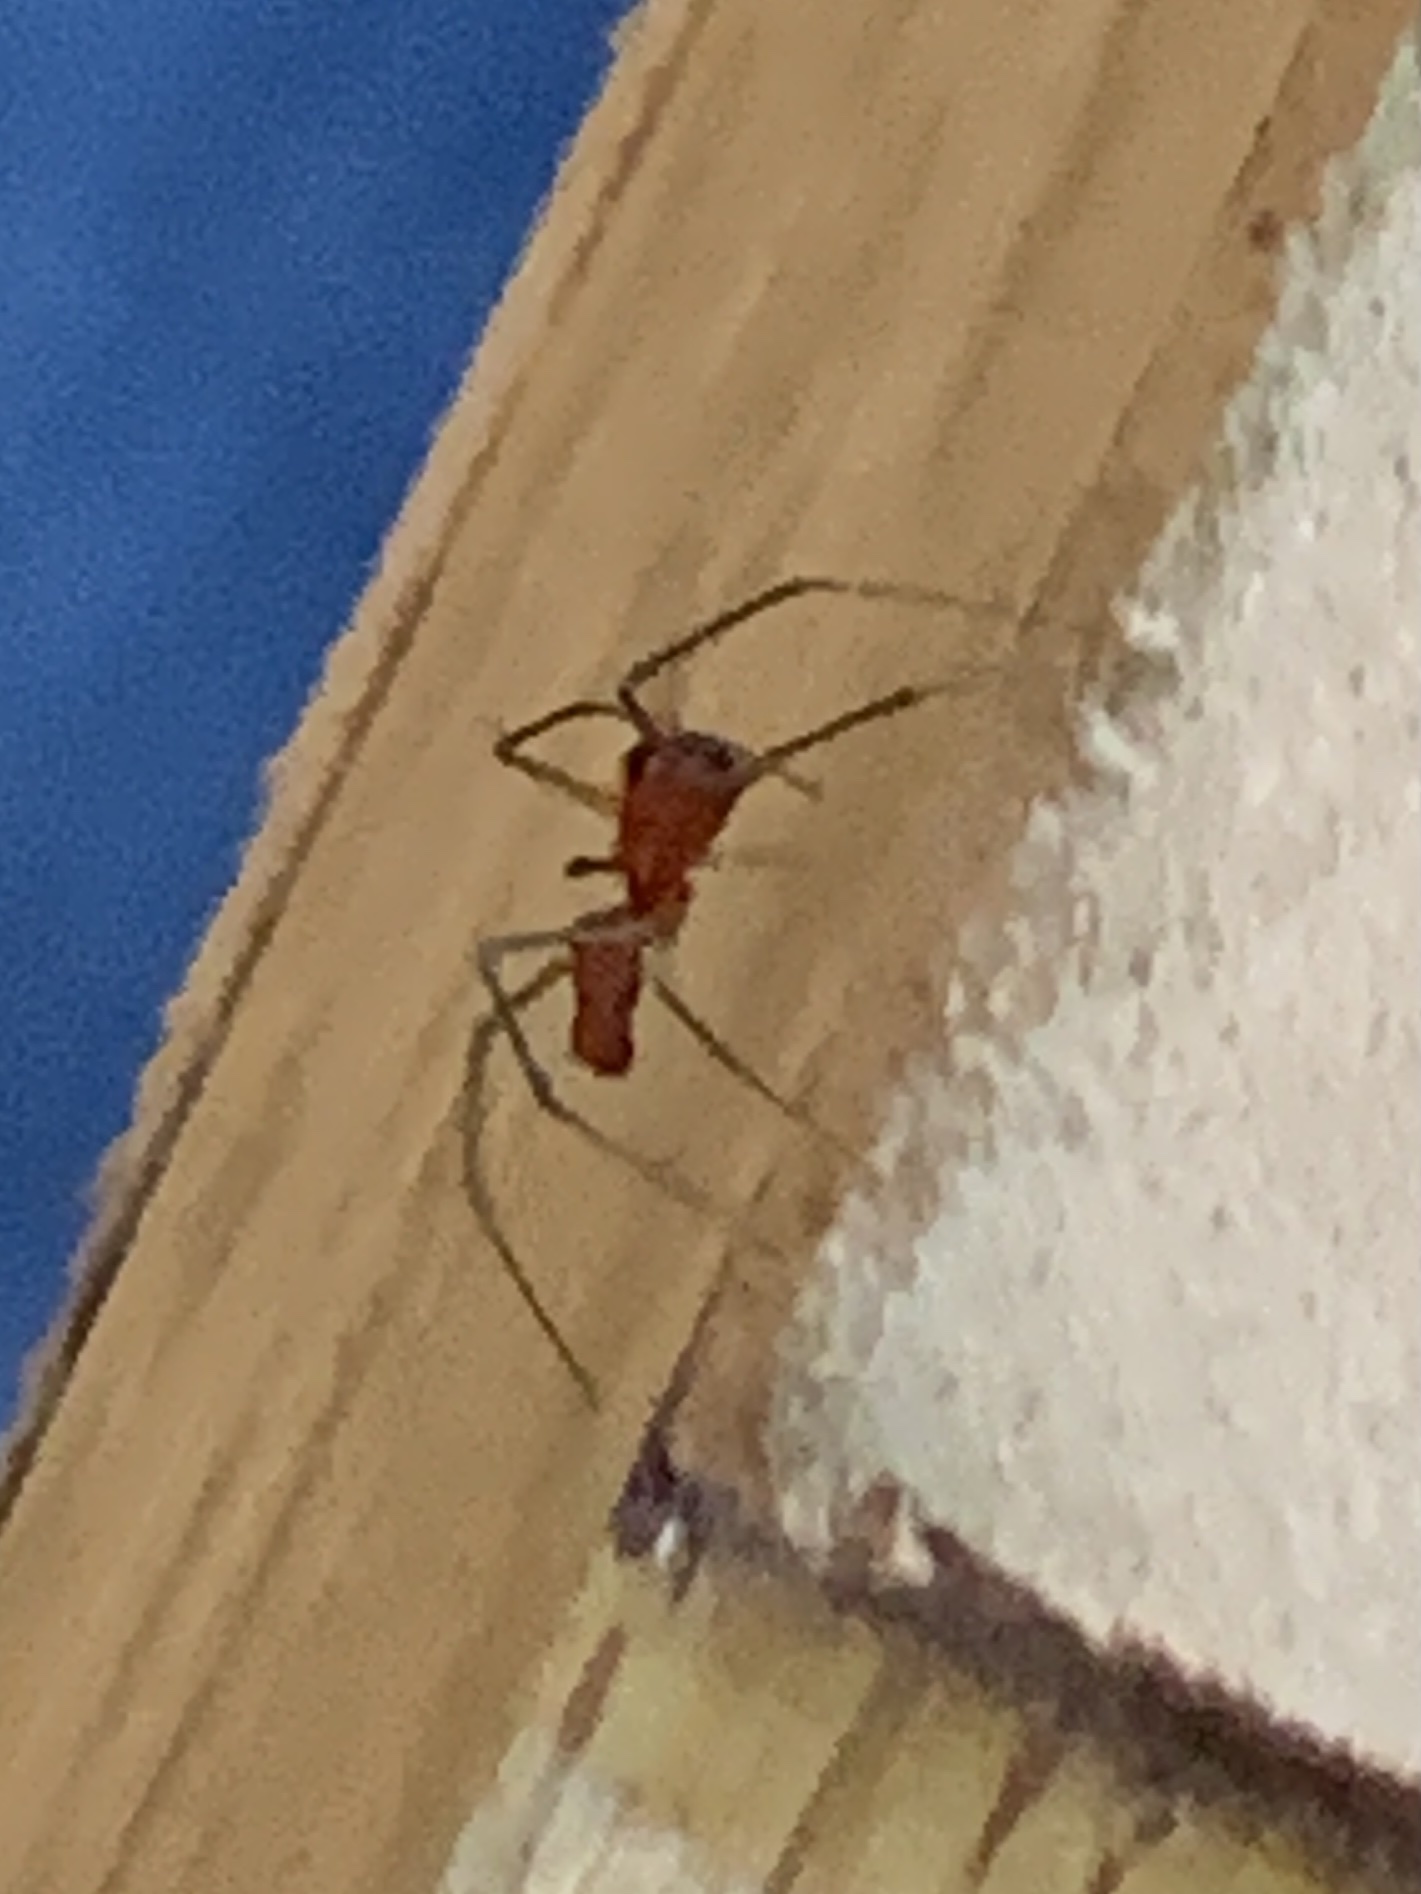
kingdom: Animalia
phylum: Arthropoda
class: Arachnida
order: Araneae
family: Linyphiidae
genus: Florinda
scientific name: Florinda coccinea
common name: Black-tailed red sheetweaver
